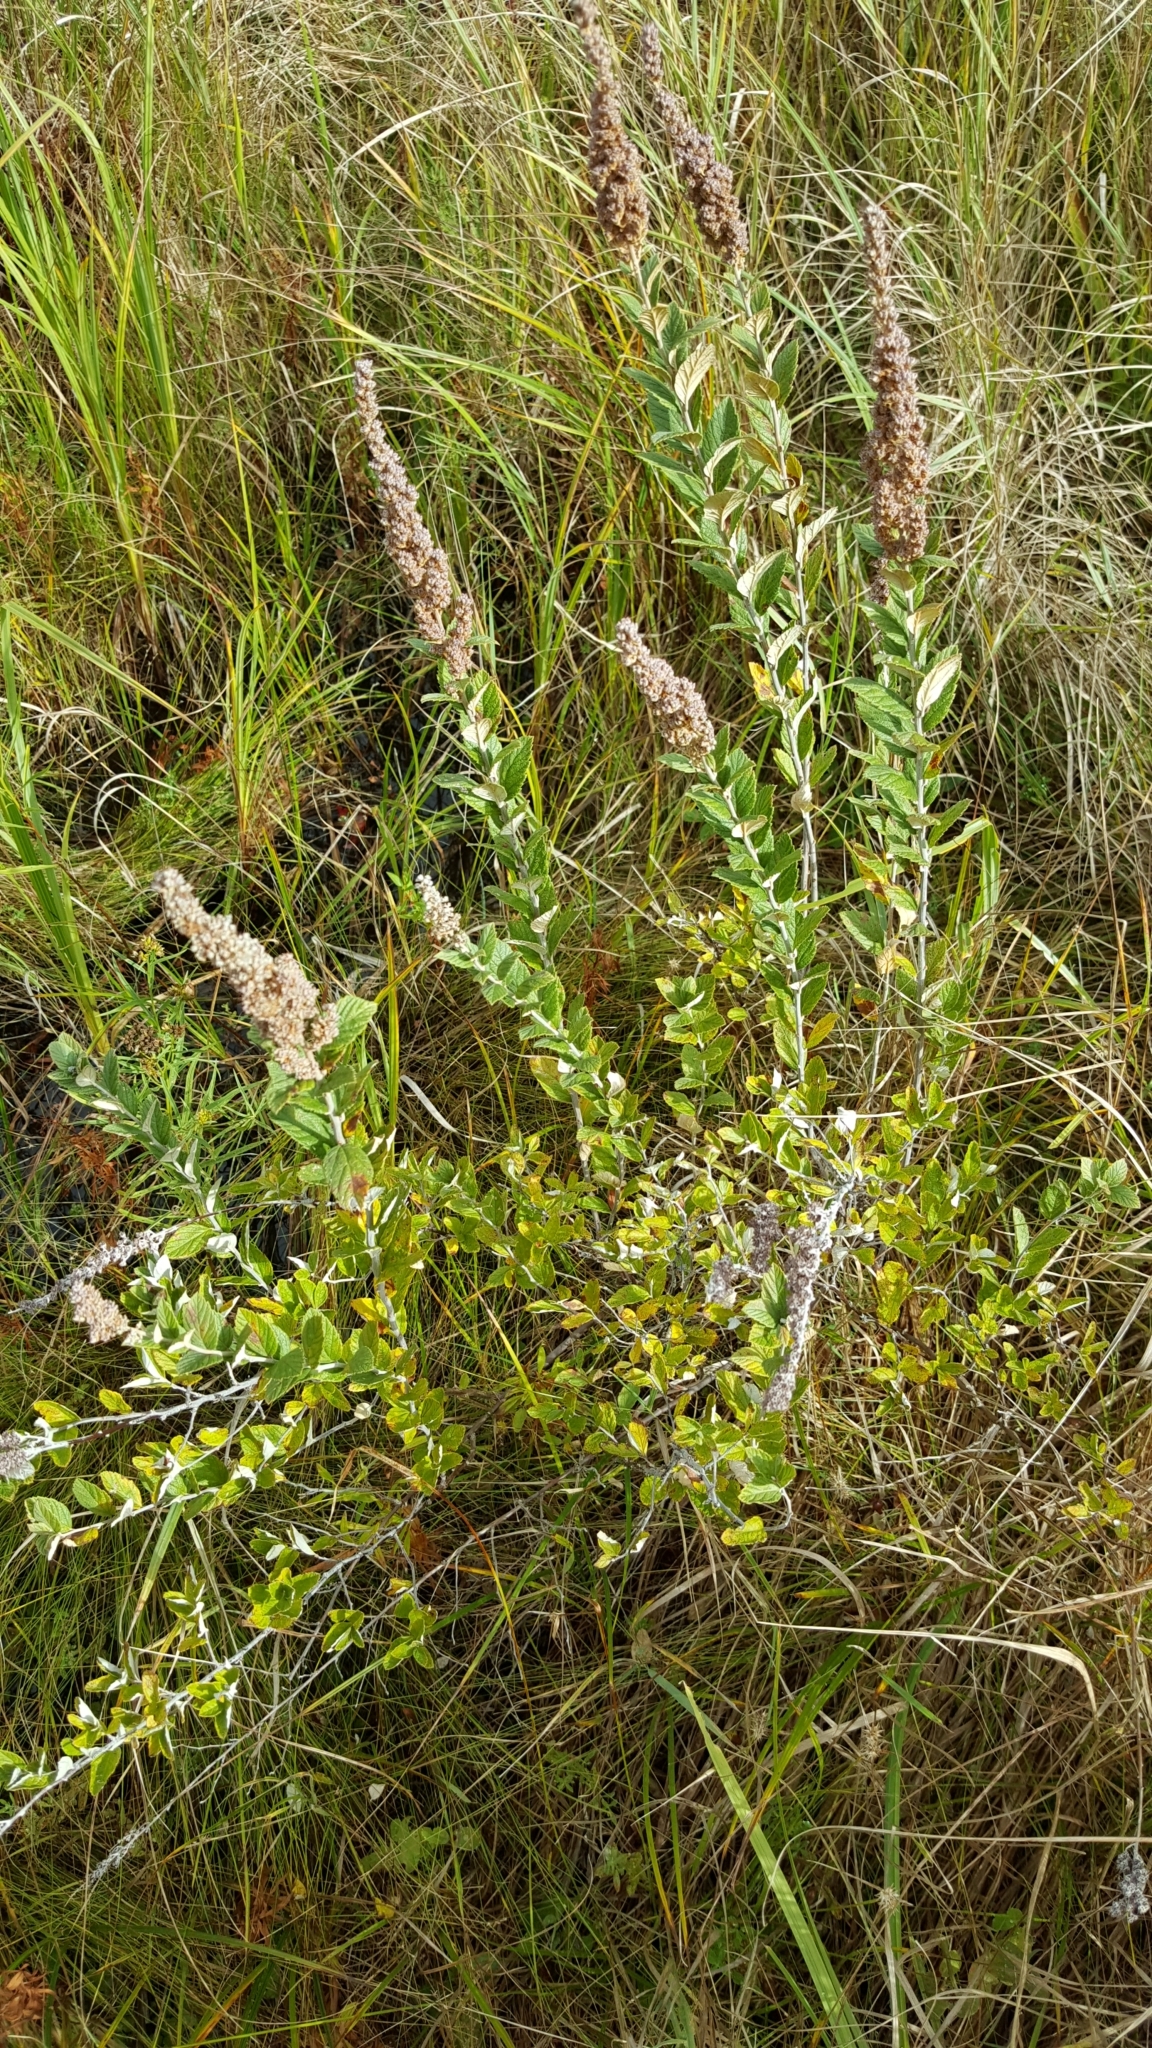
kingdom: Plantae
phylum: Tracheophyta
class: Magnoliopsida
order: Rosales
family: Rosaceae
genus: Spiraea
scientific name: Spiraea tomentosa
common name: Hardhack
